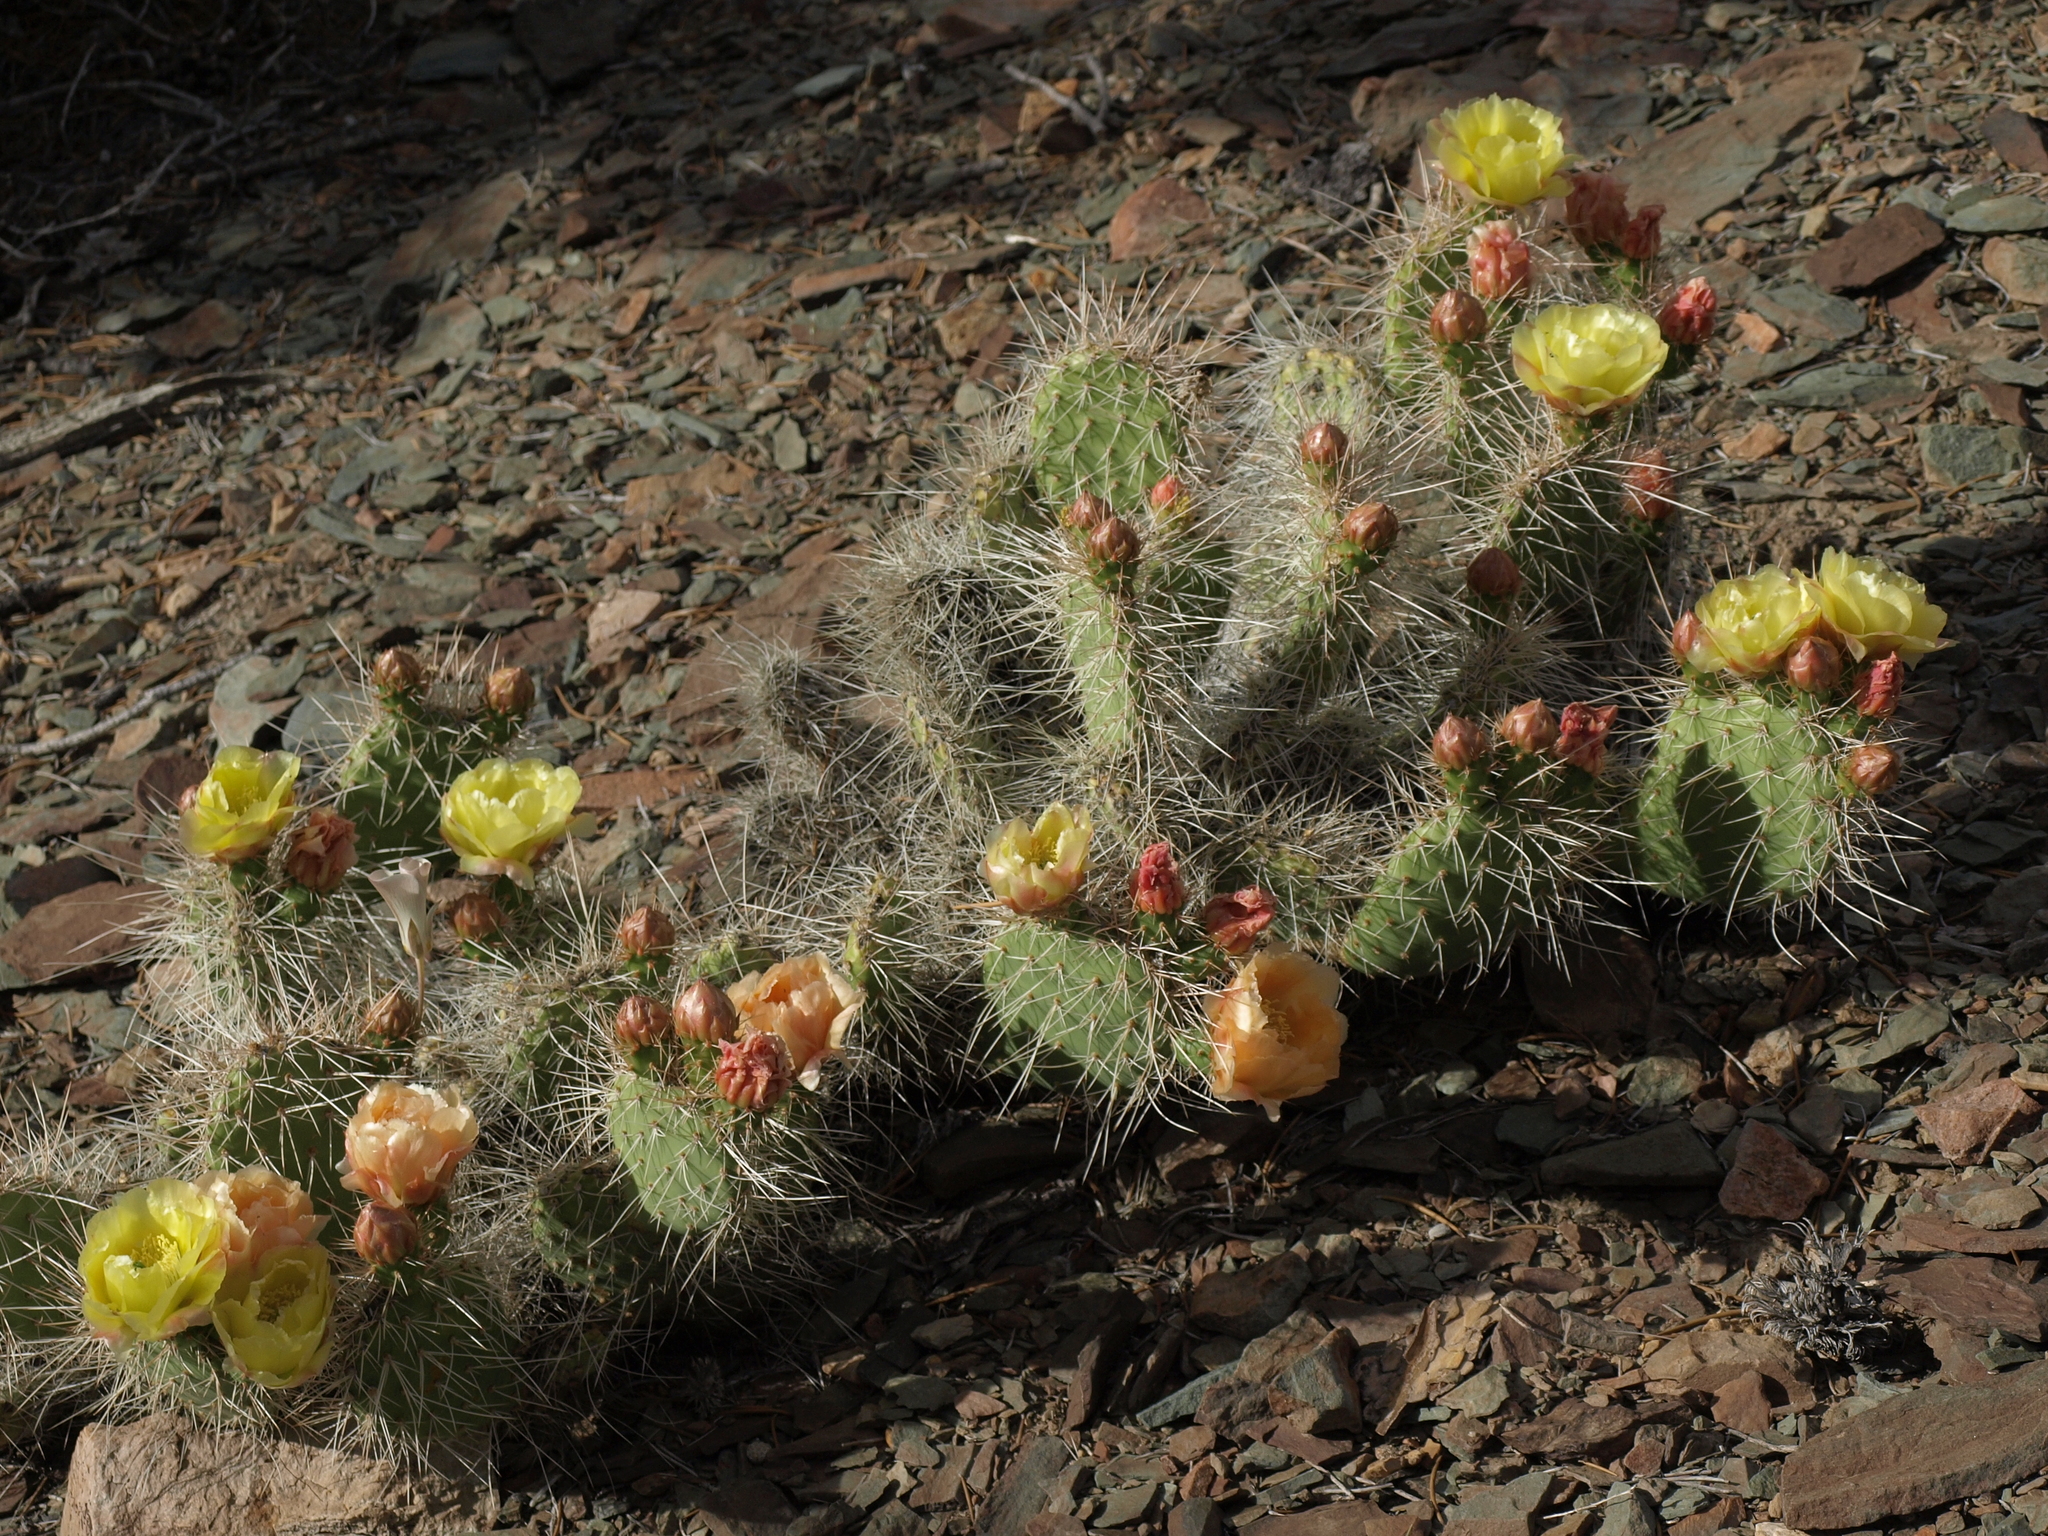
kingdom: Plantae
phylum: Tracheophyta
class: Magnoliopsida
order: Caryophyllales
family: Cactaceae
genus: Opuntia
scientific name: Opuntia polyacantha
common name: Plains prickly-pear
